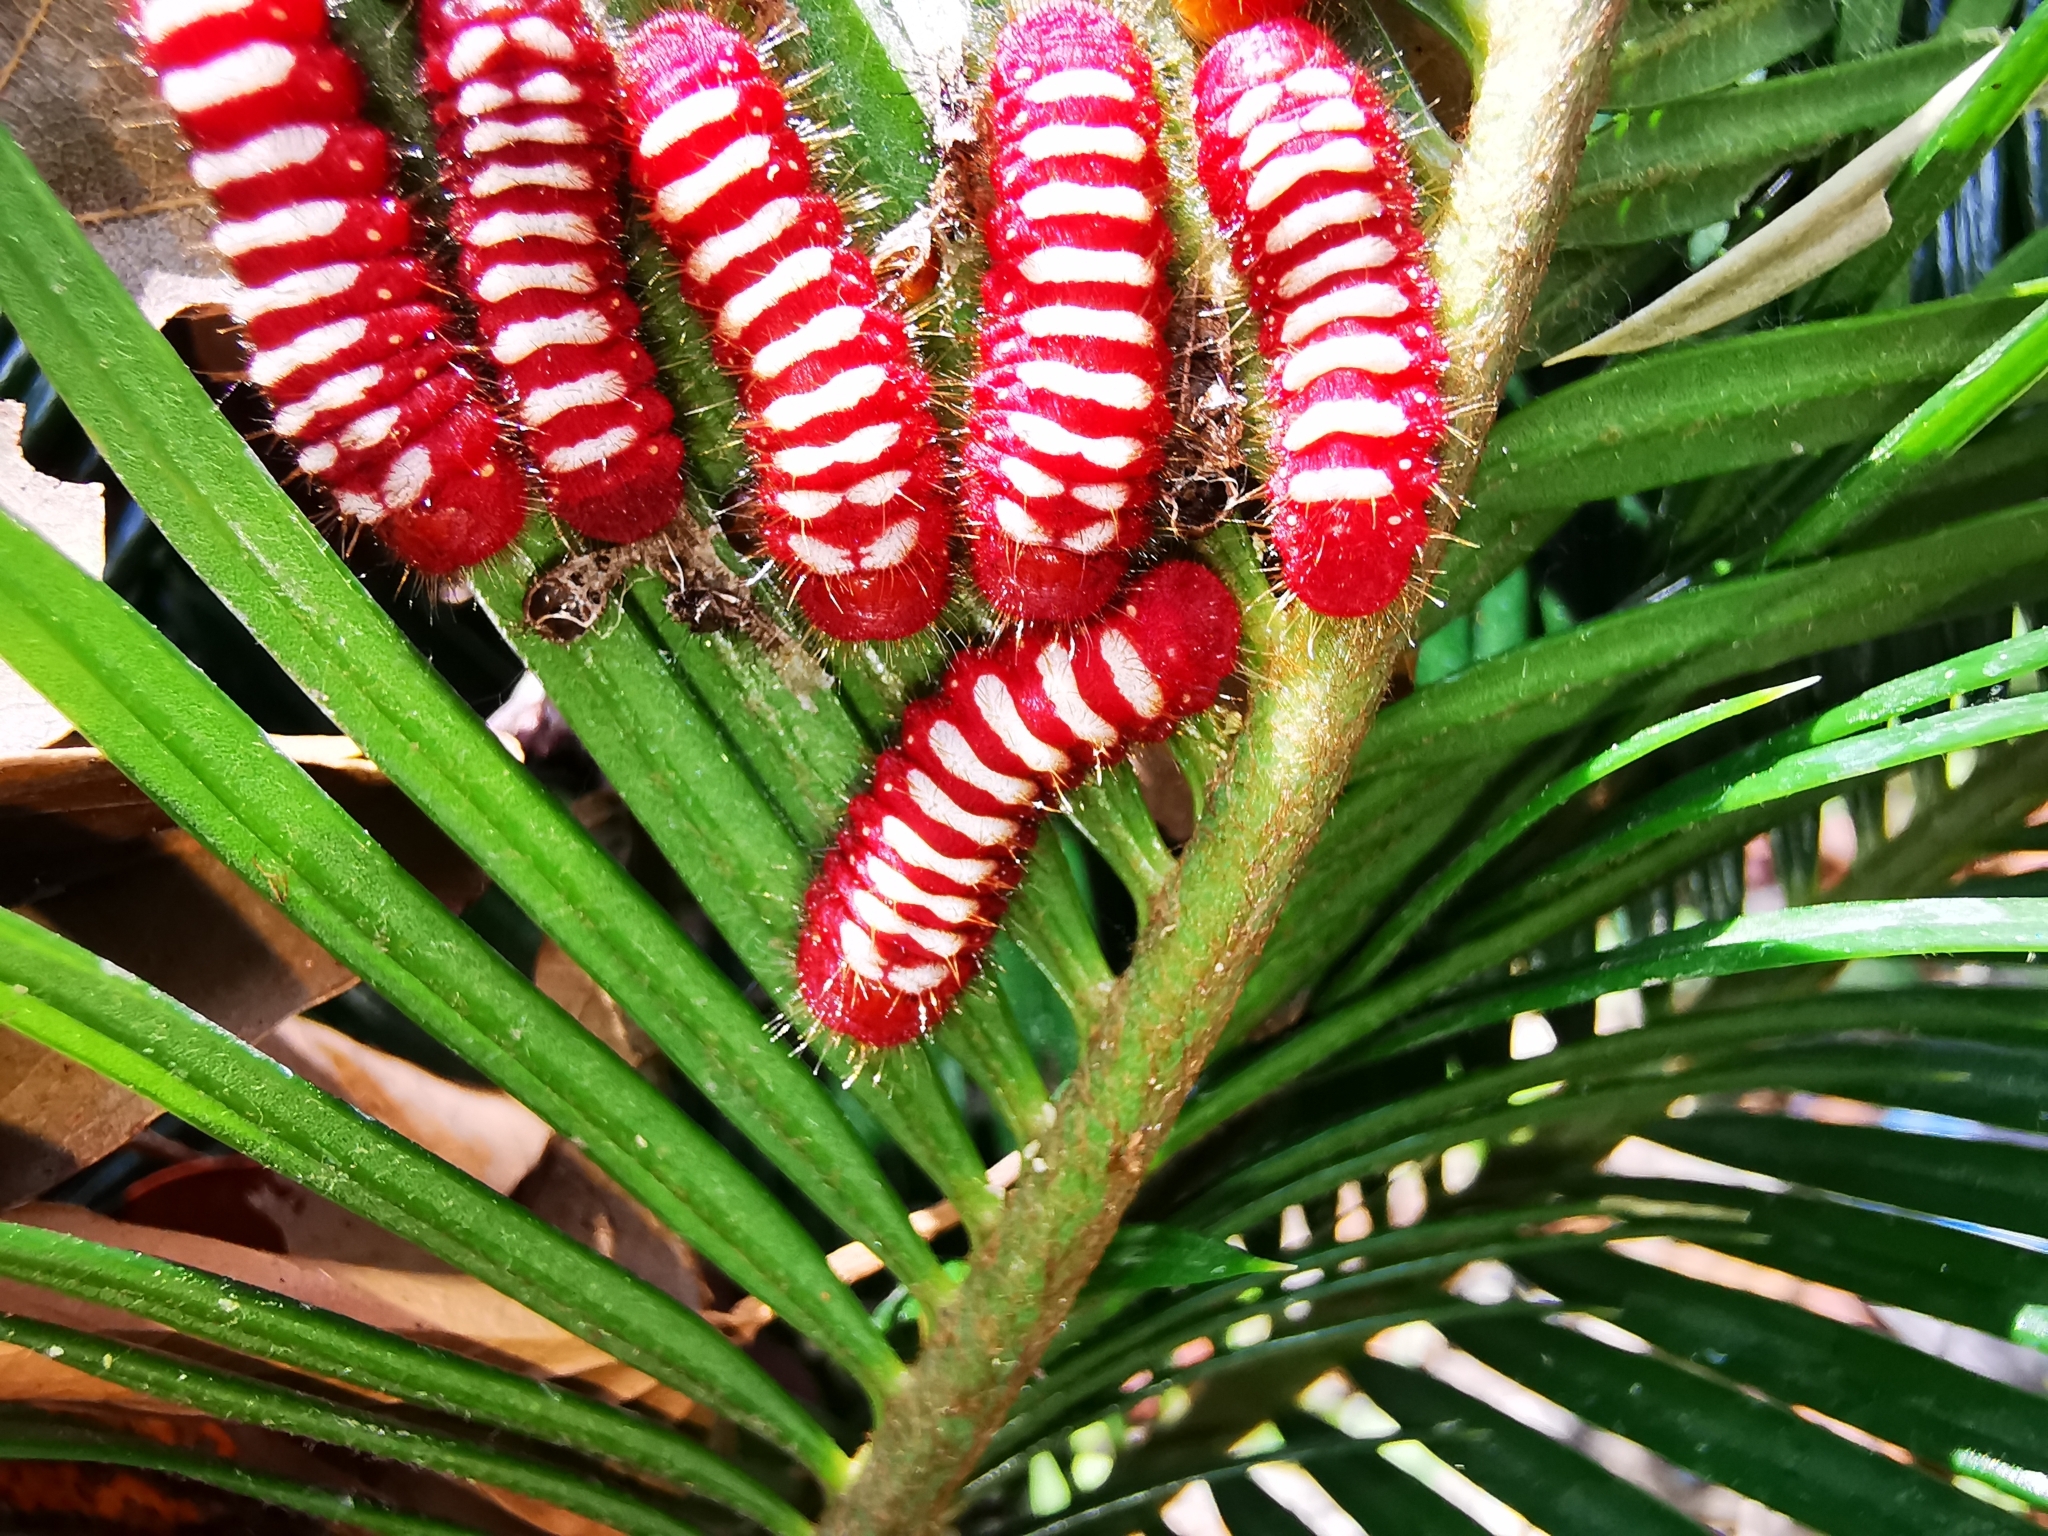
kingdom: Animalia
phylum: Arthropoda
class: Insecta
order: Lepidoptera
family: Lycaenidae
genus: Eumaeus
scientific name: Eumaeus childrenae
